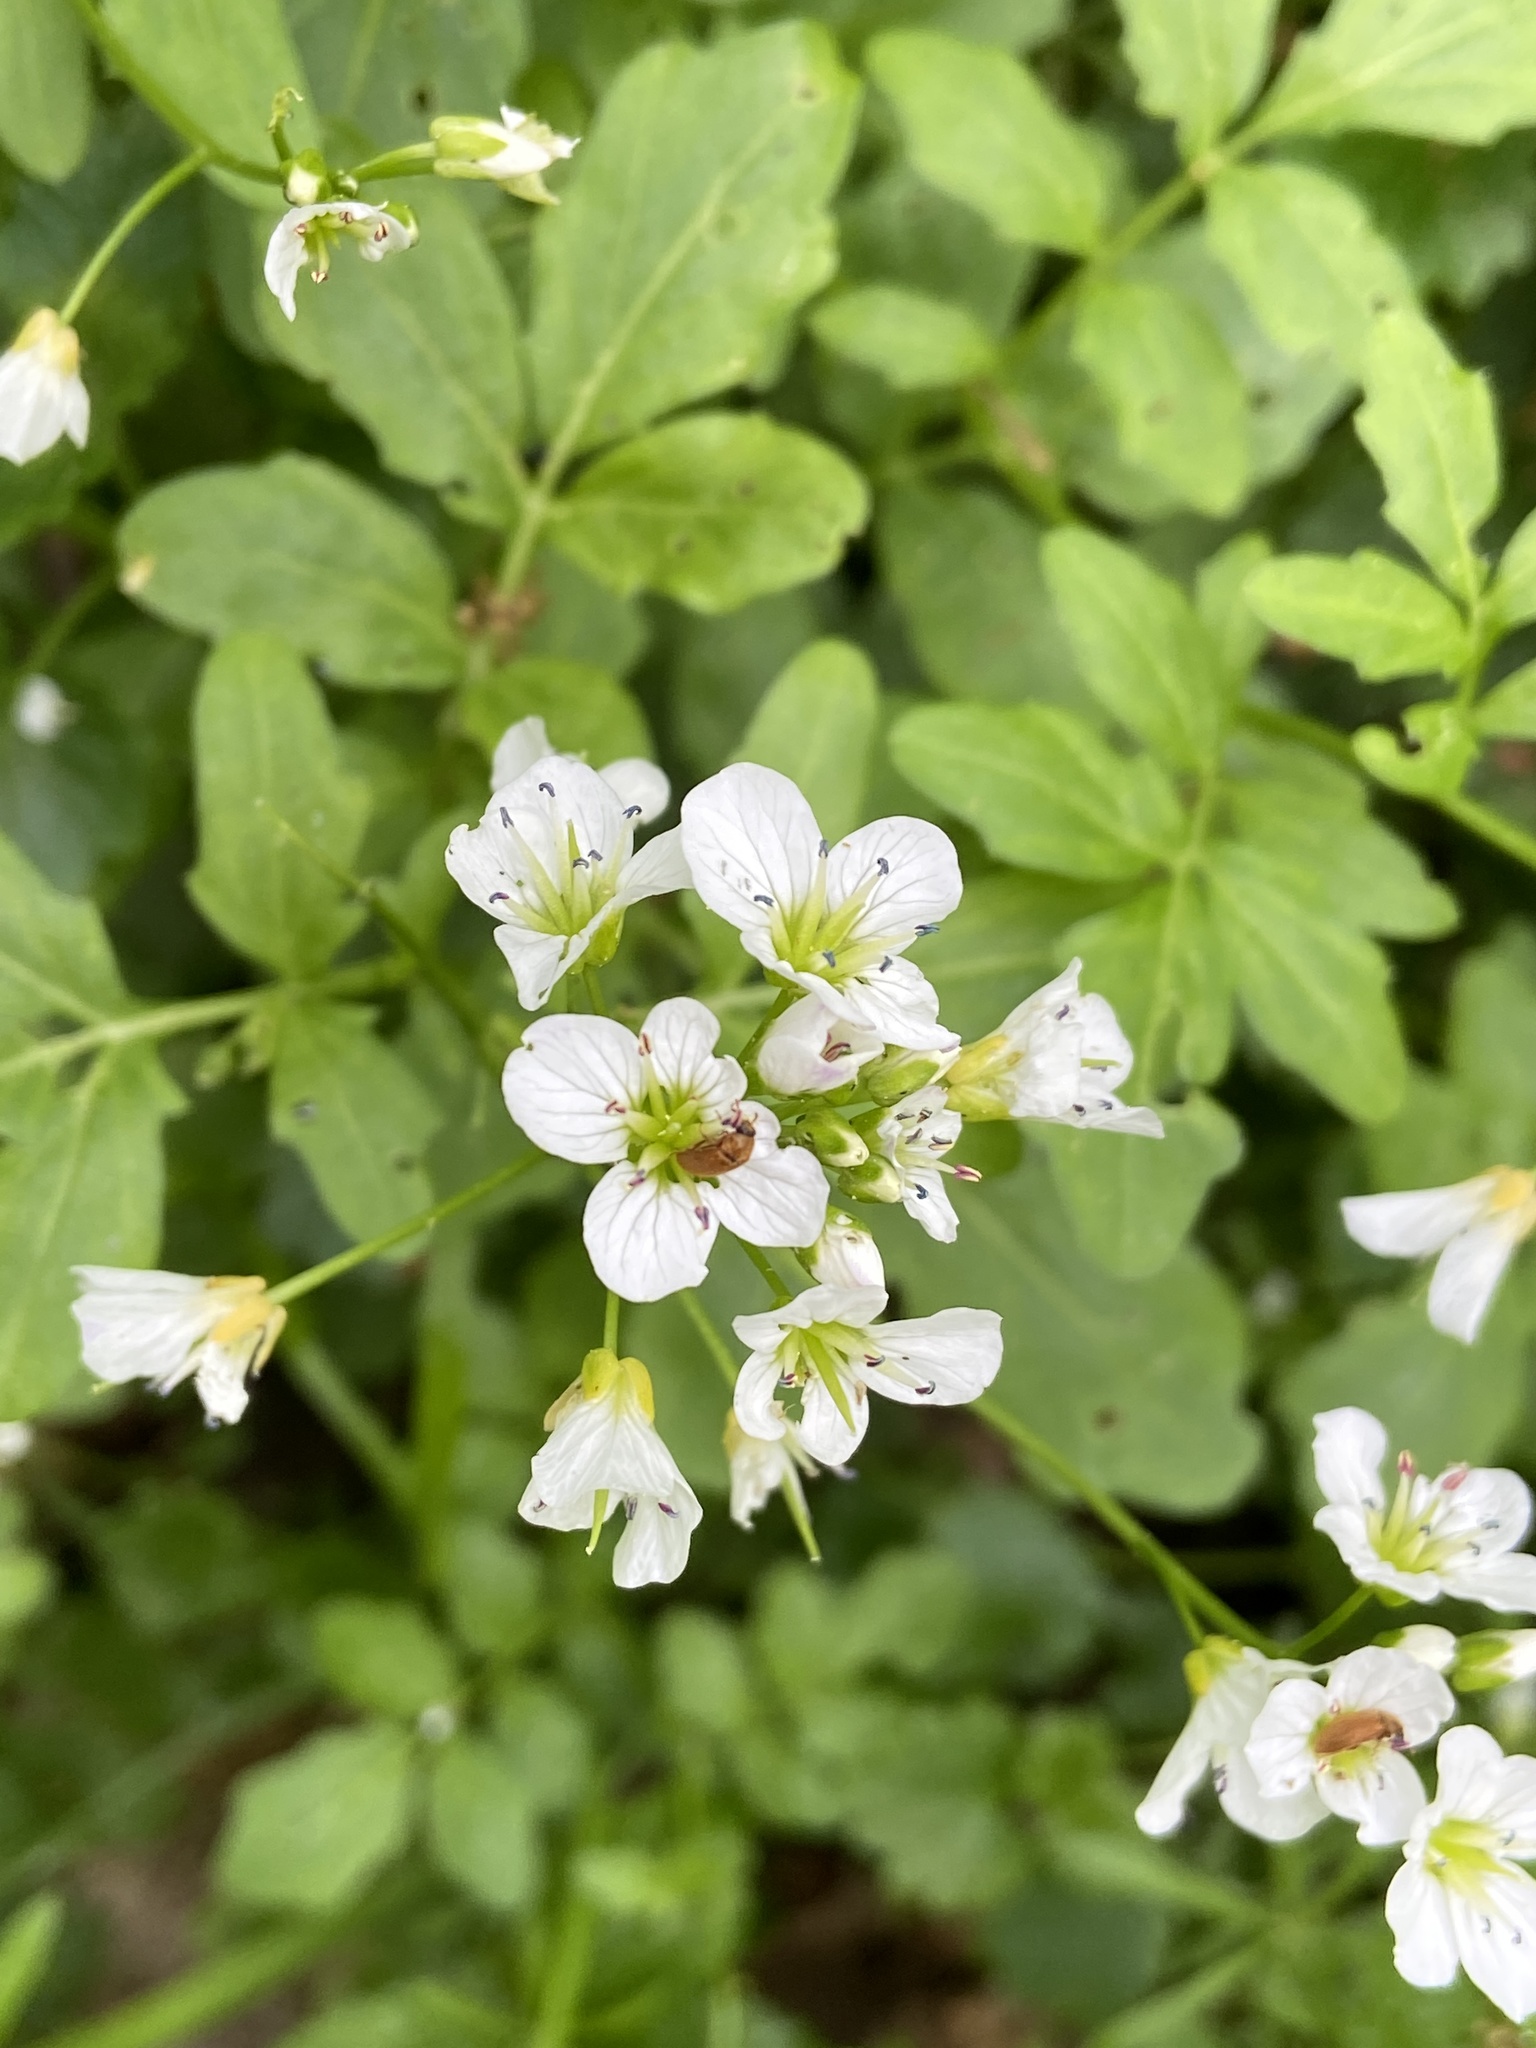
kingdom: Plantae
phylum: Tracheophyta
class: Magnoliopsida
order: Brassicales
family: Brassicaceae
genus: Cardamine
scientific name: Cardamine amara
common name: Large bitter-cress
